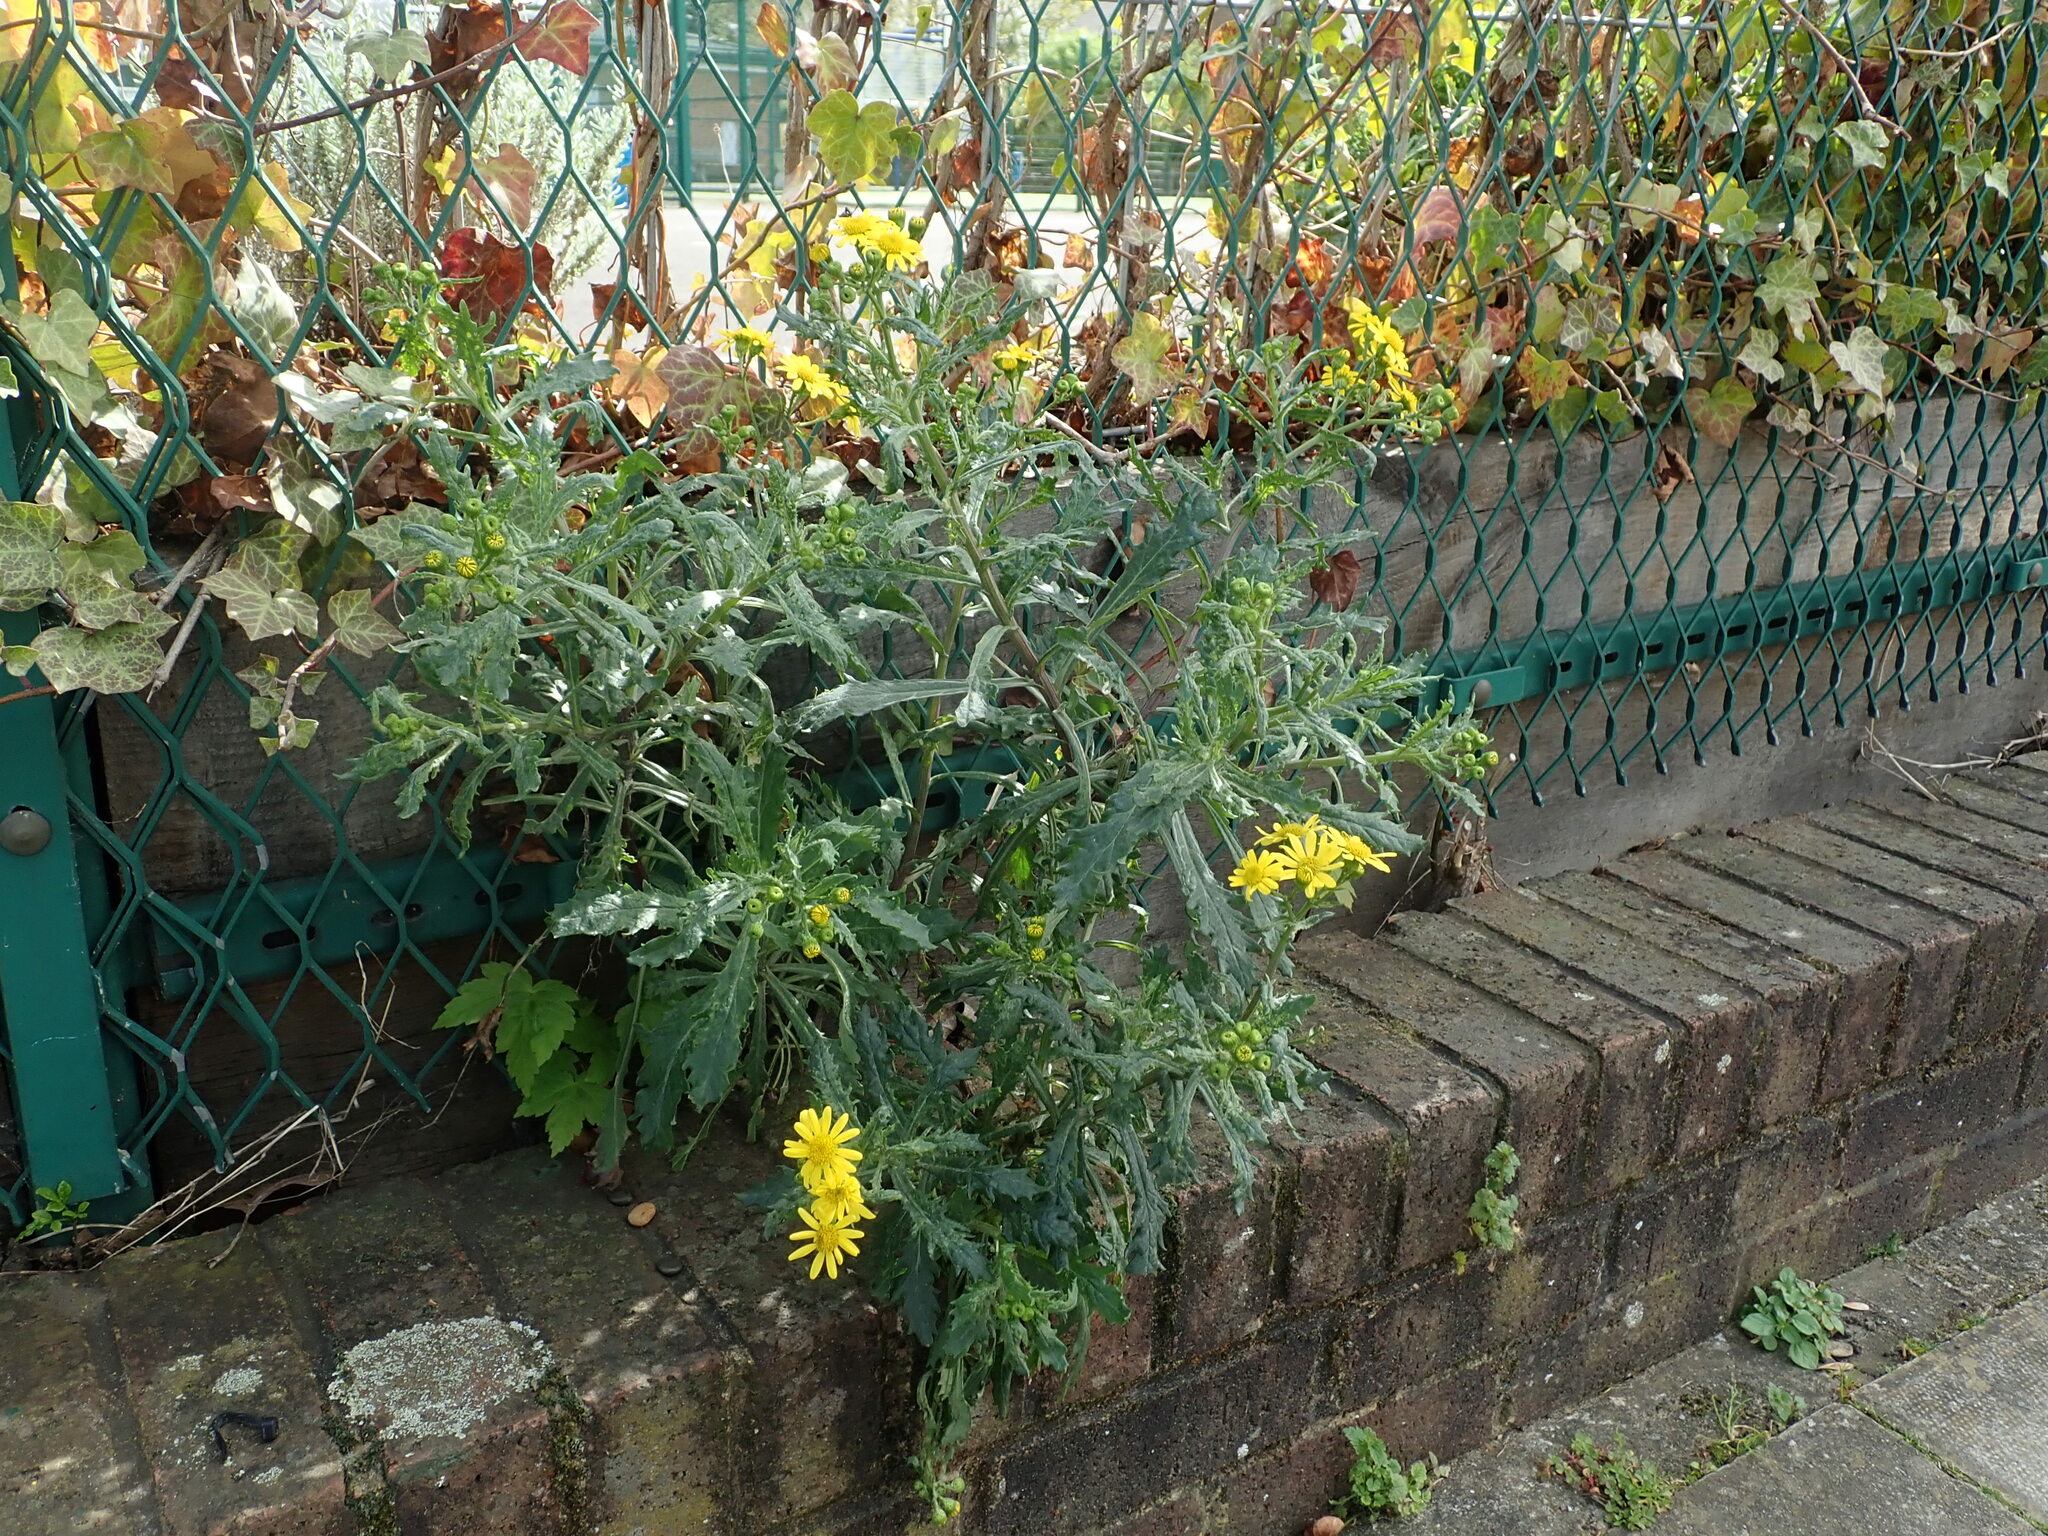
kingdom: Plantae
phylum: Tracheophyta
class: Magnoliopsida
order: Asterales
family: Asteraceae
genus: Senecio
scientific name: Senecio squalidus
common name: Oxford ragwort
